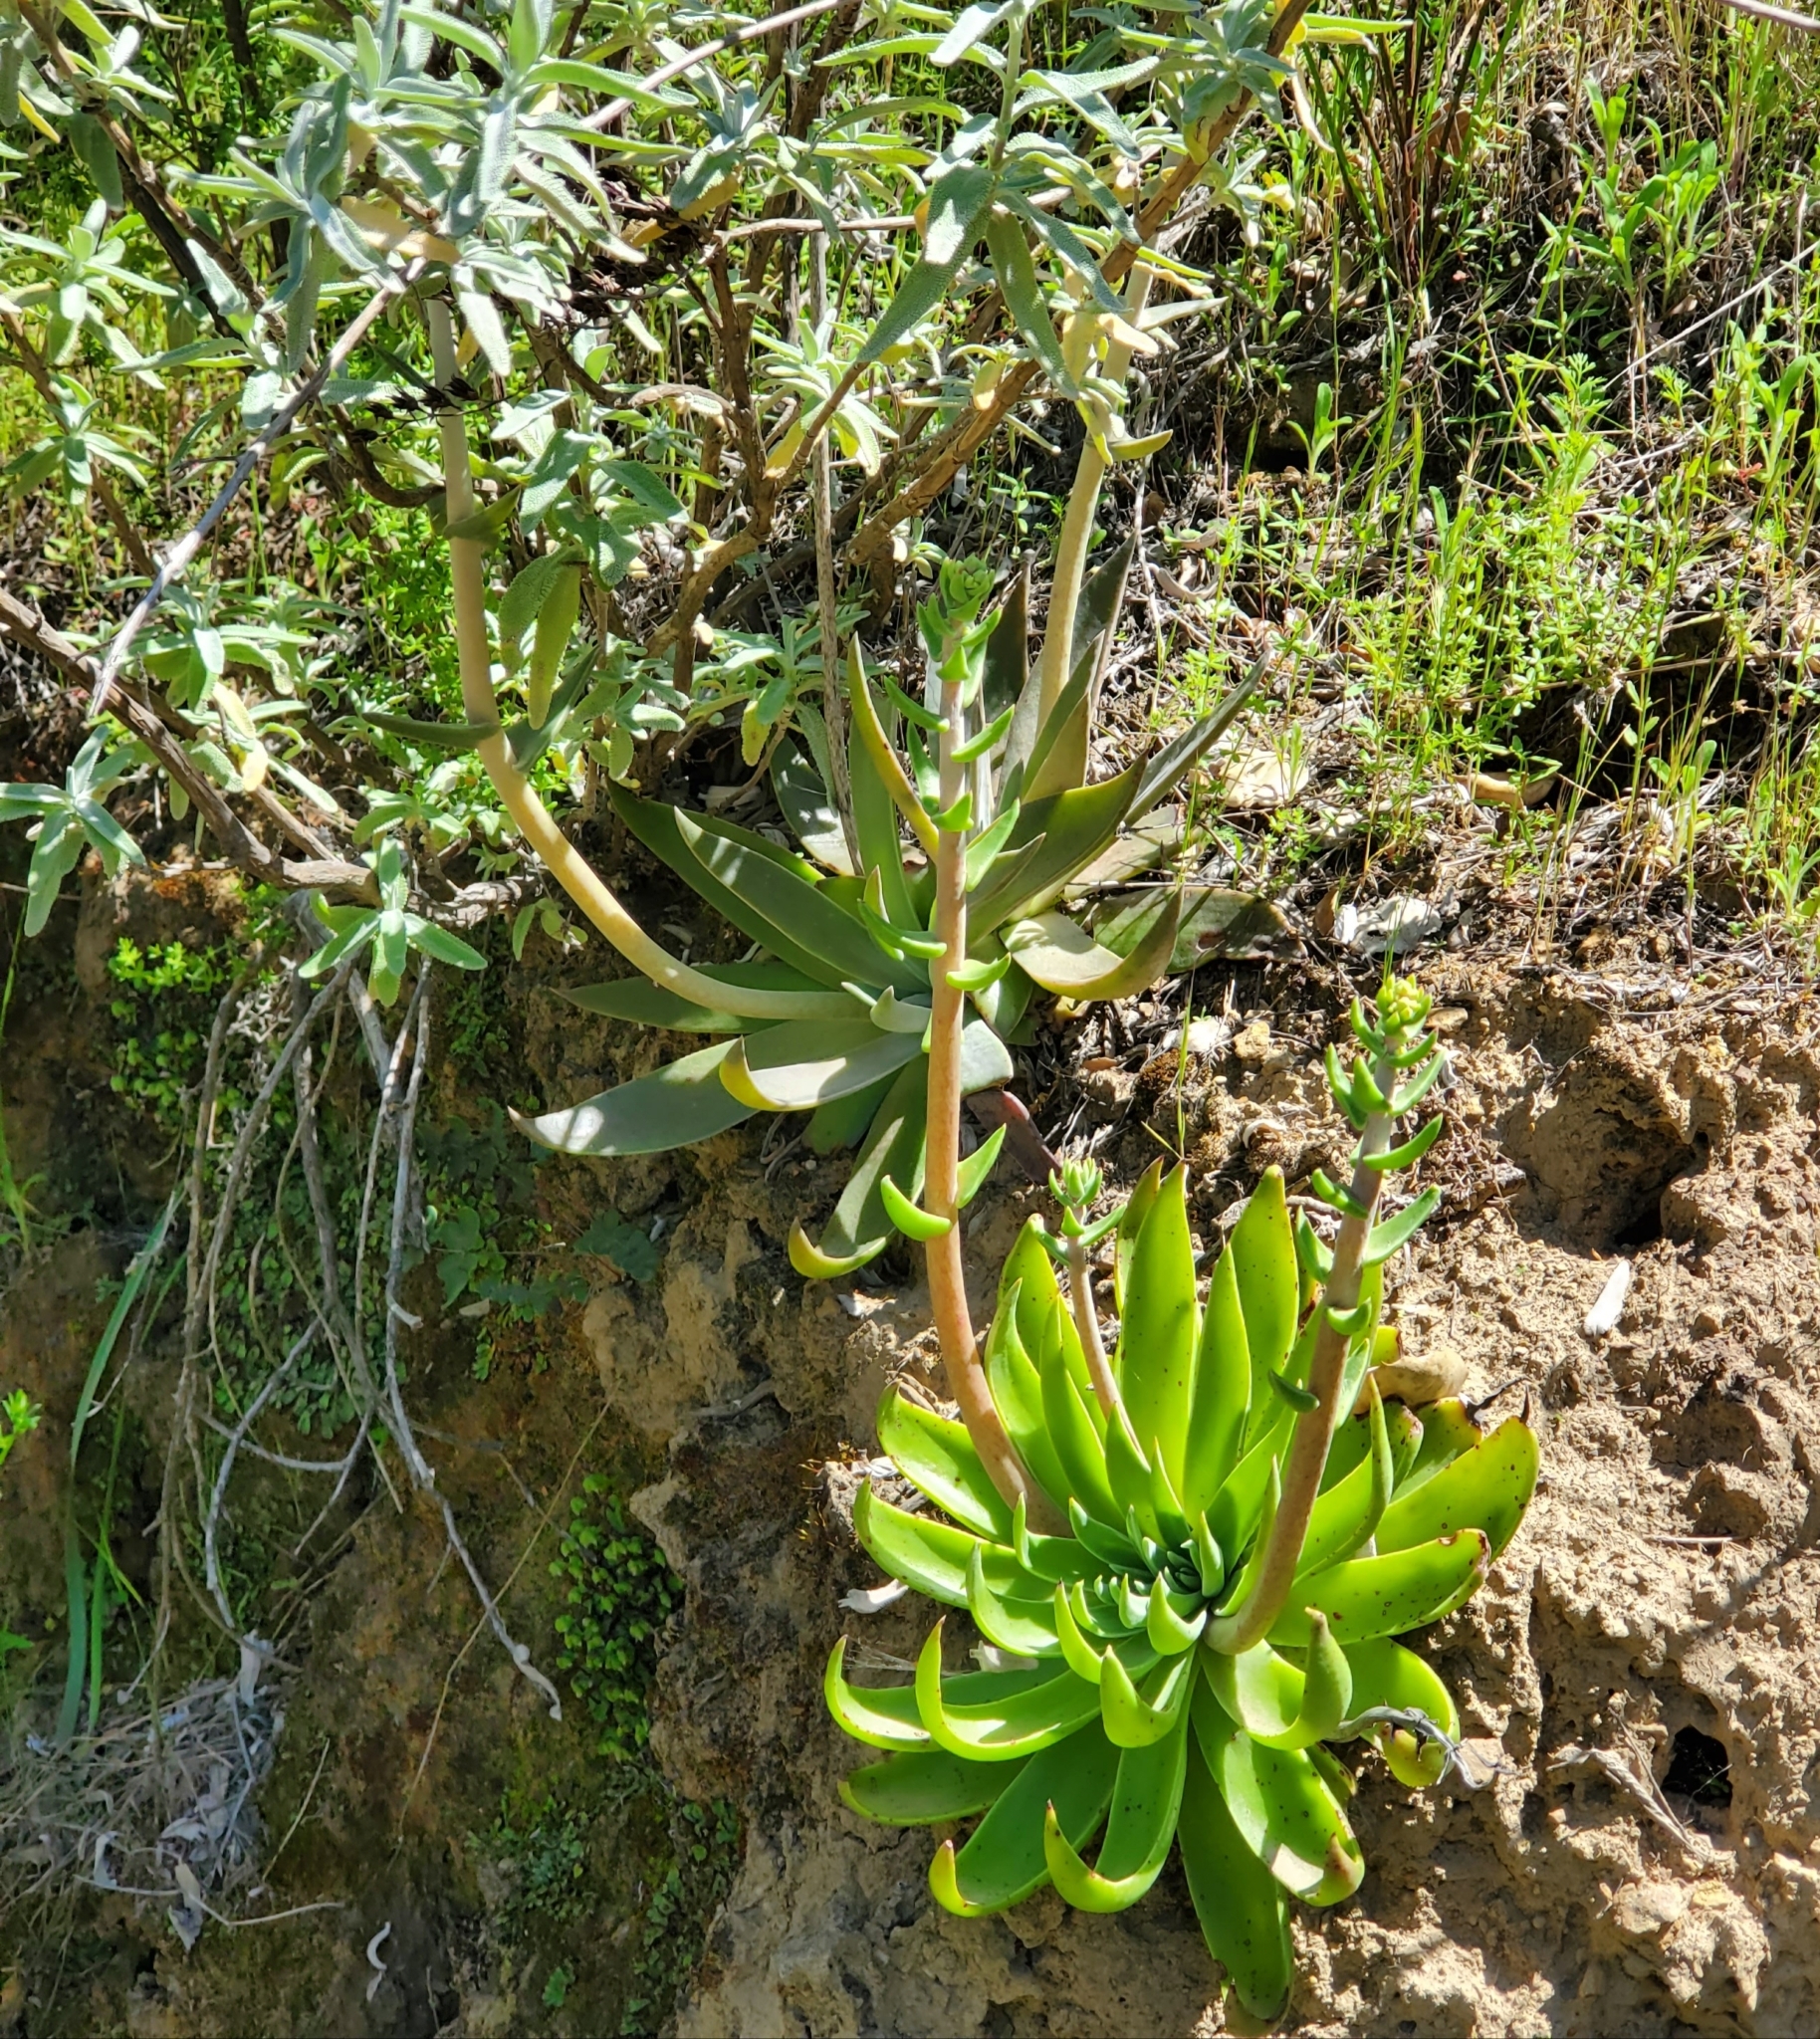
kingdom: Plantae
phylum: Tracheophyta
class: Magnoliopsida
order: Saxifragales
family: Crassulaceae
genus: Dudleya
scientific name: Dudleya lanceolata
